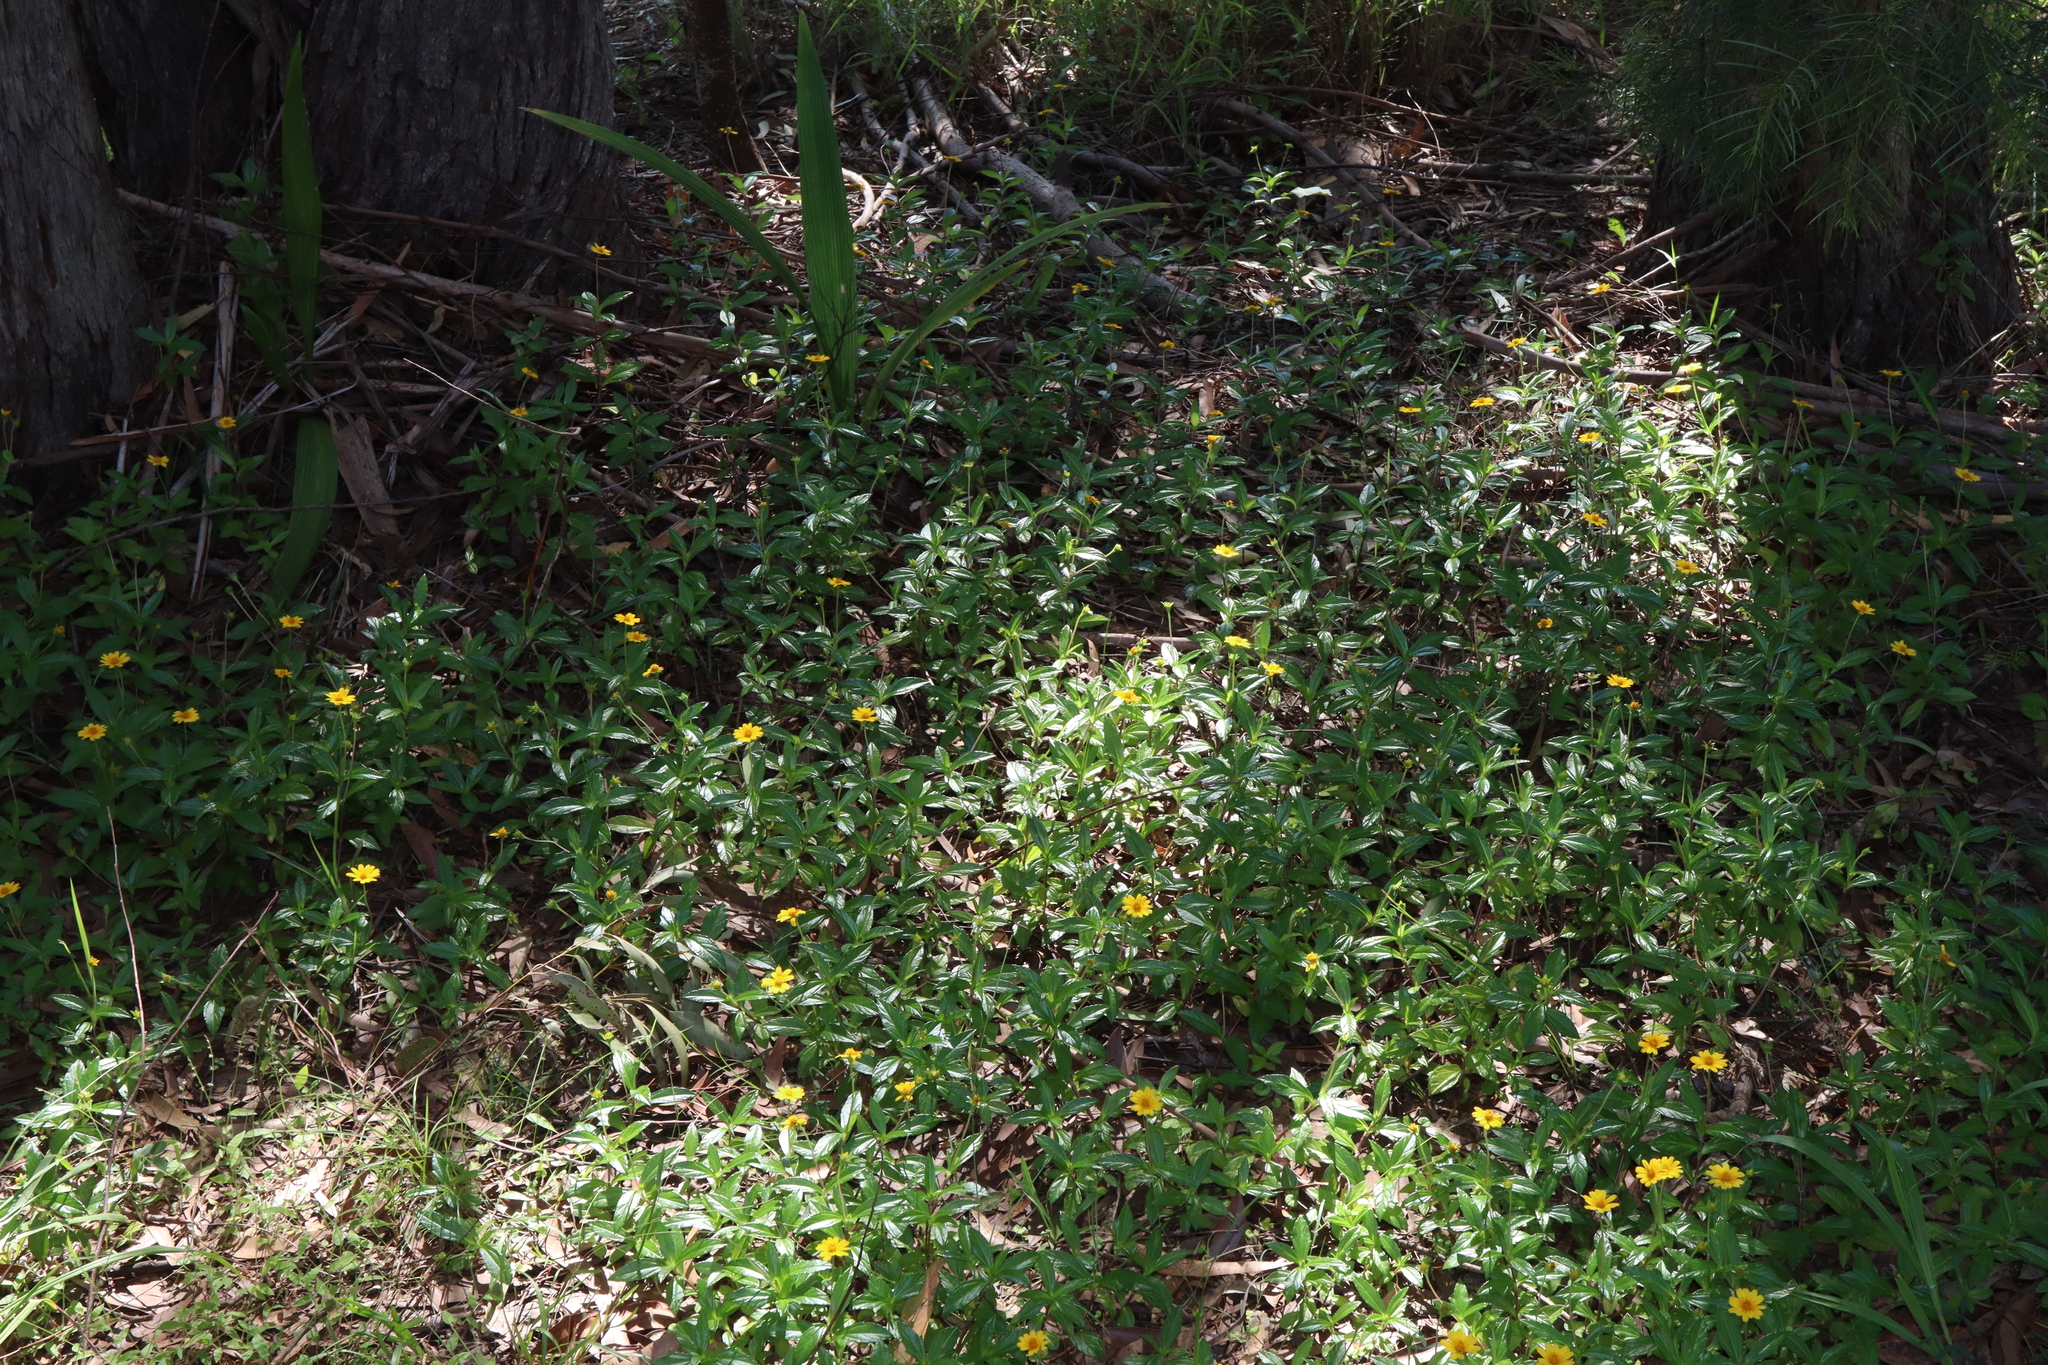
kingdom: Plantae
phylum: Tracheophyta
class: Magnoliopsida
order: Asterales
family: Asteraceae
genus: Sphagneticola
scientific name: Sphagneticola trilobata
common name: Bay biscayne creeping-oxeye
